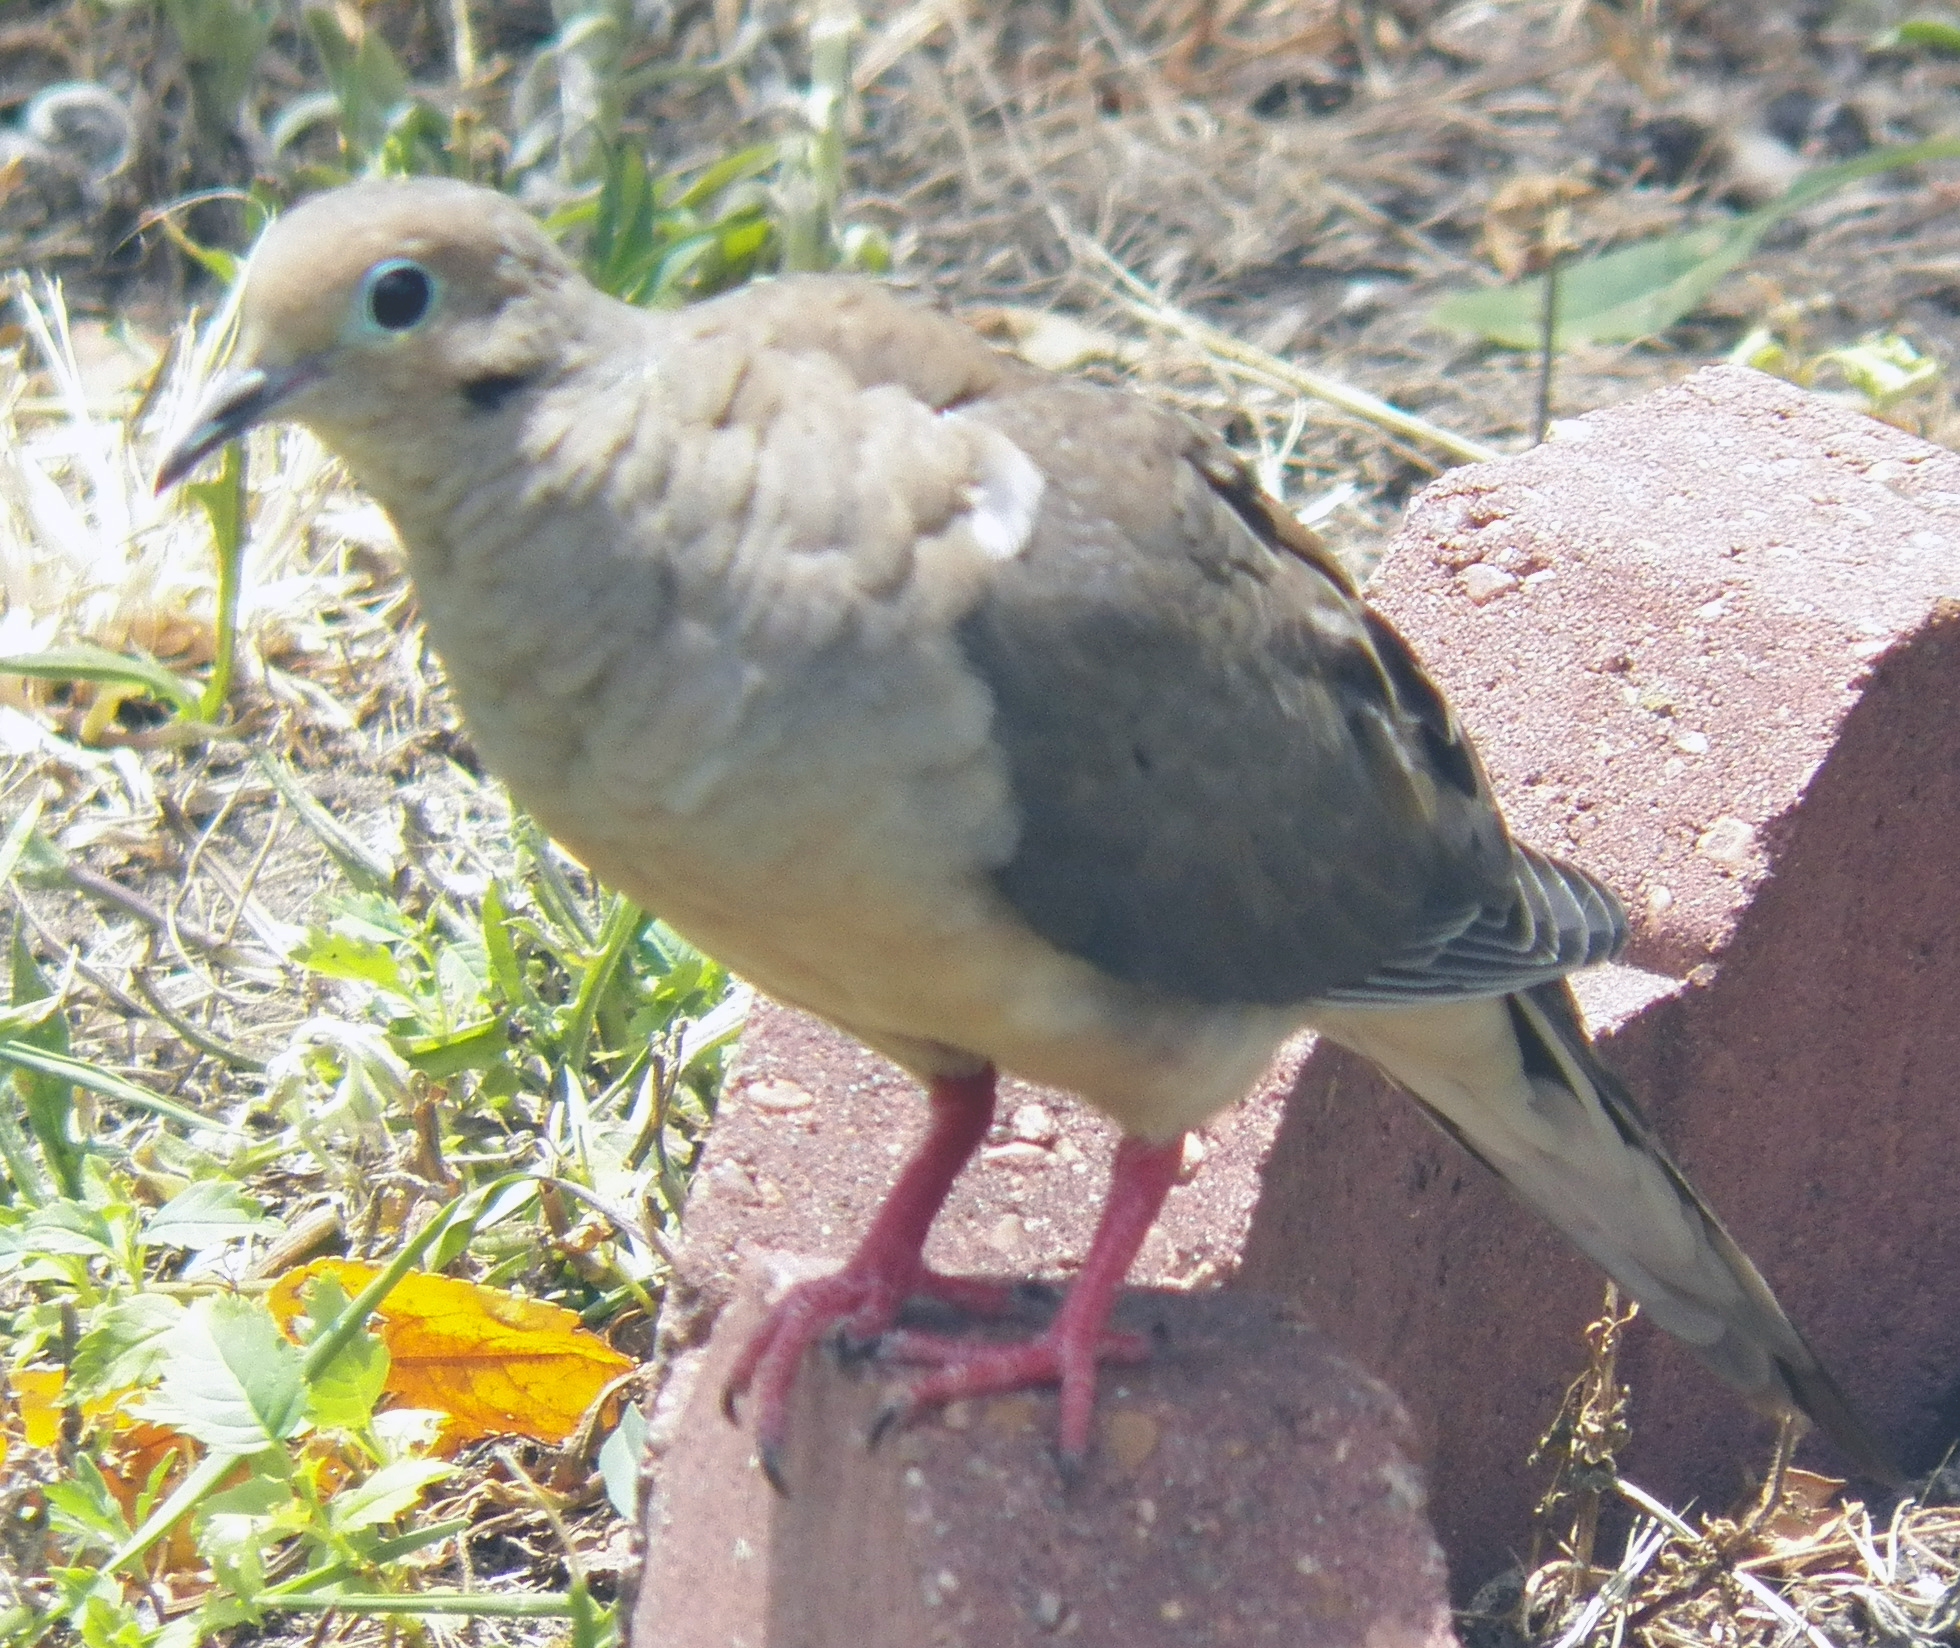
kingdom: Animalia
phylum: Chordata
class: Aves
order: Columbiformes
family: Columbidae
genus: Zenaida
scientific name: Zenaida macroura
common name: Mourning dove
